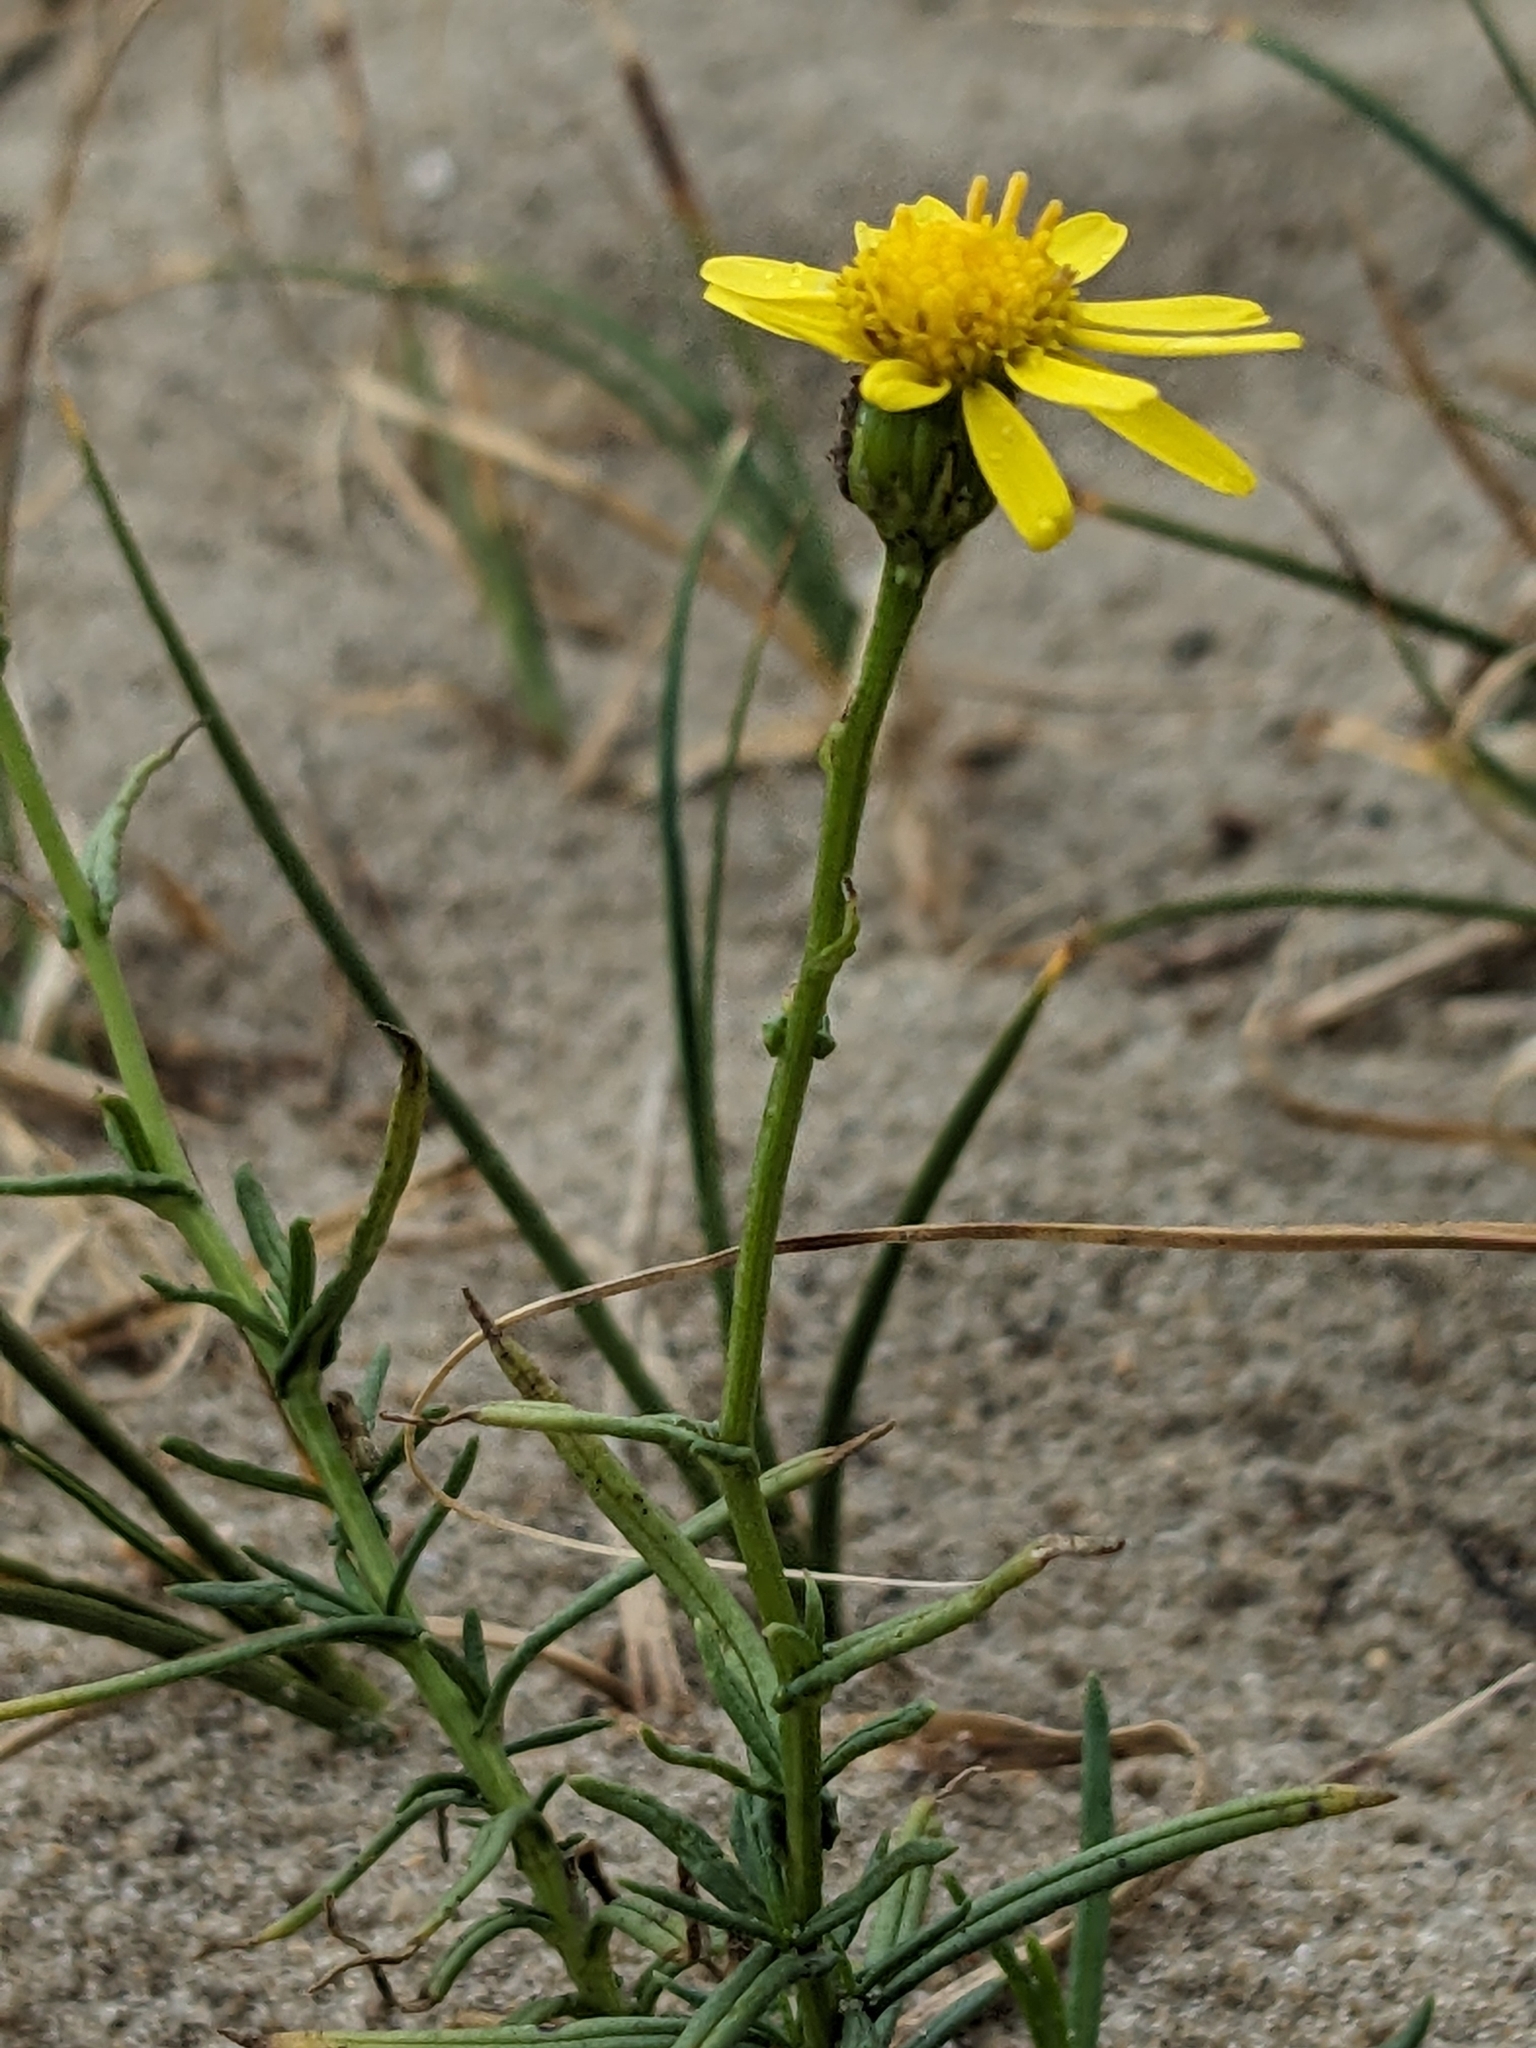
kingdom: Plantae
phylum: Tracheophyta
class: Magnoliopsida
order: Asterales
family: Asteraceae
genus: Senecio
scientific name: Senecio inaequidens
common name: Narrow-leaved ragwort
